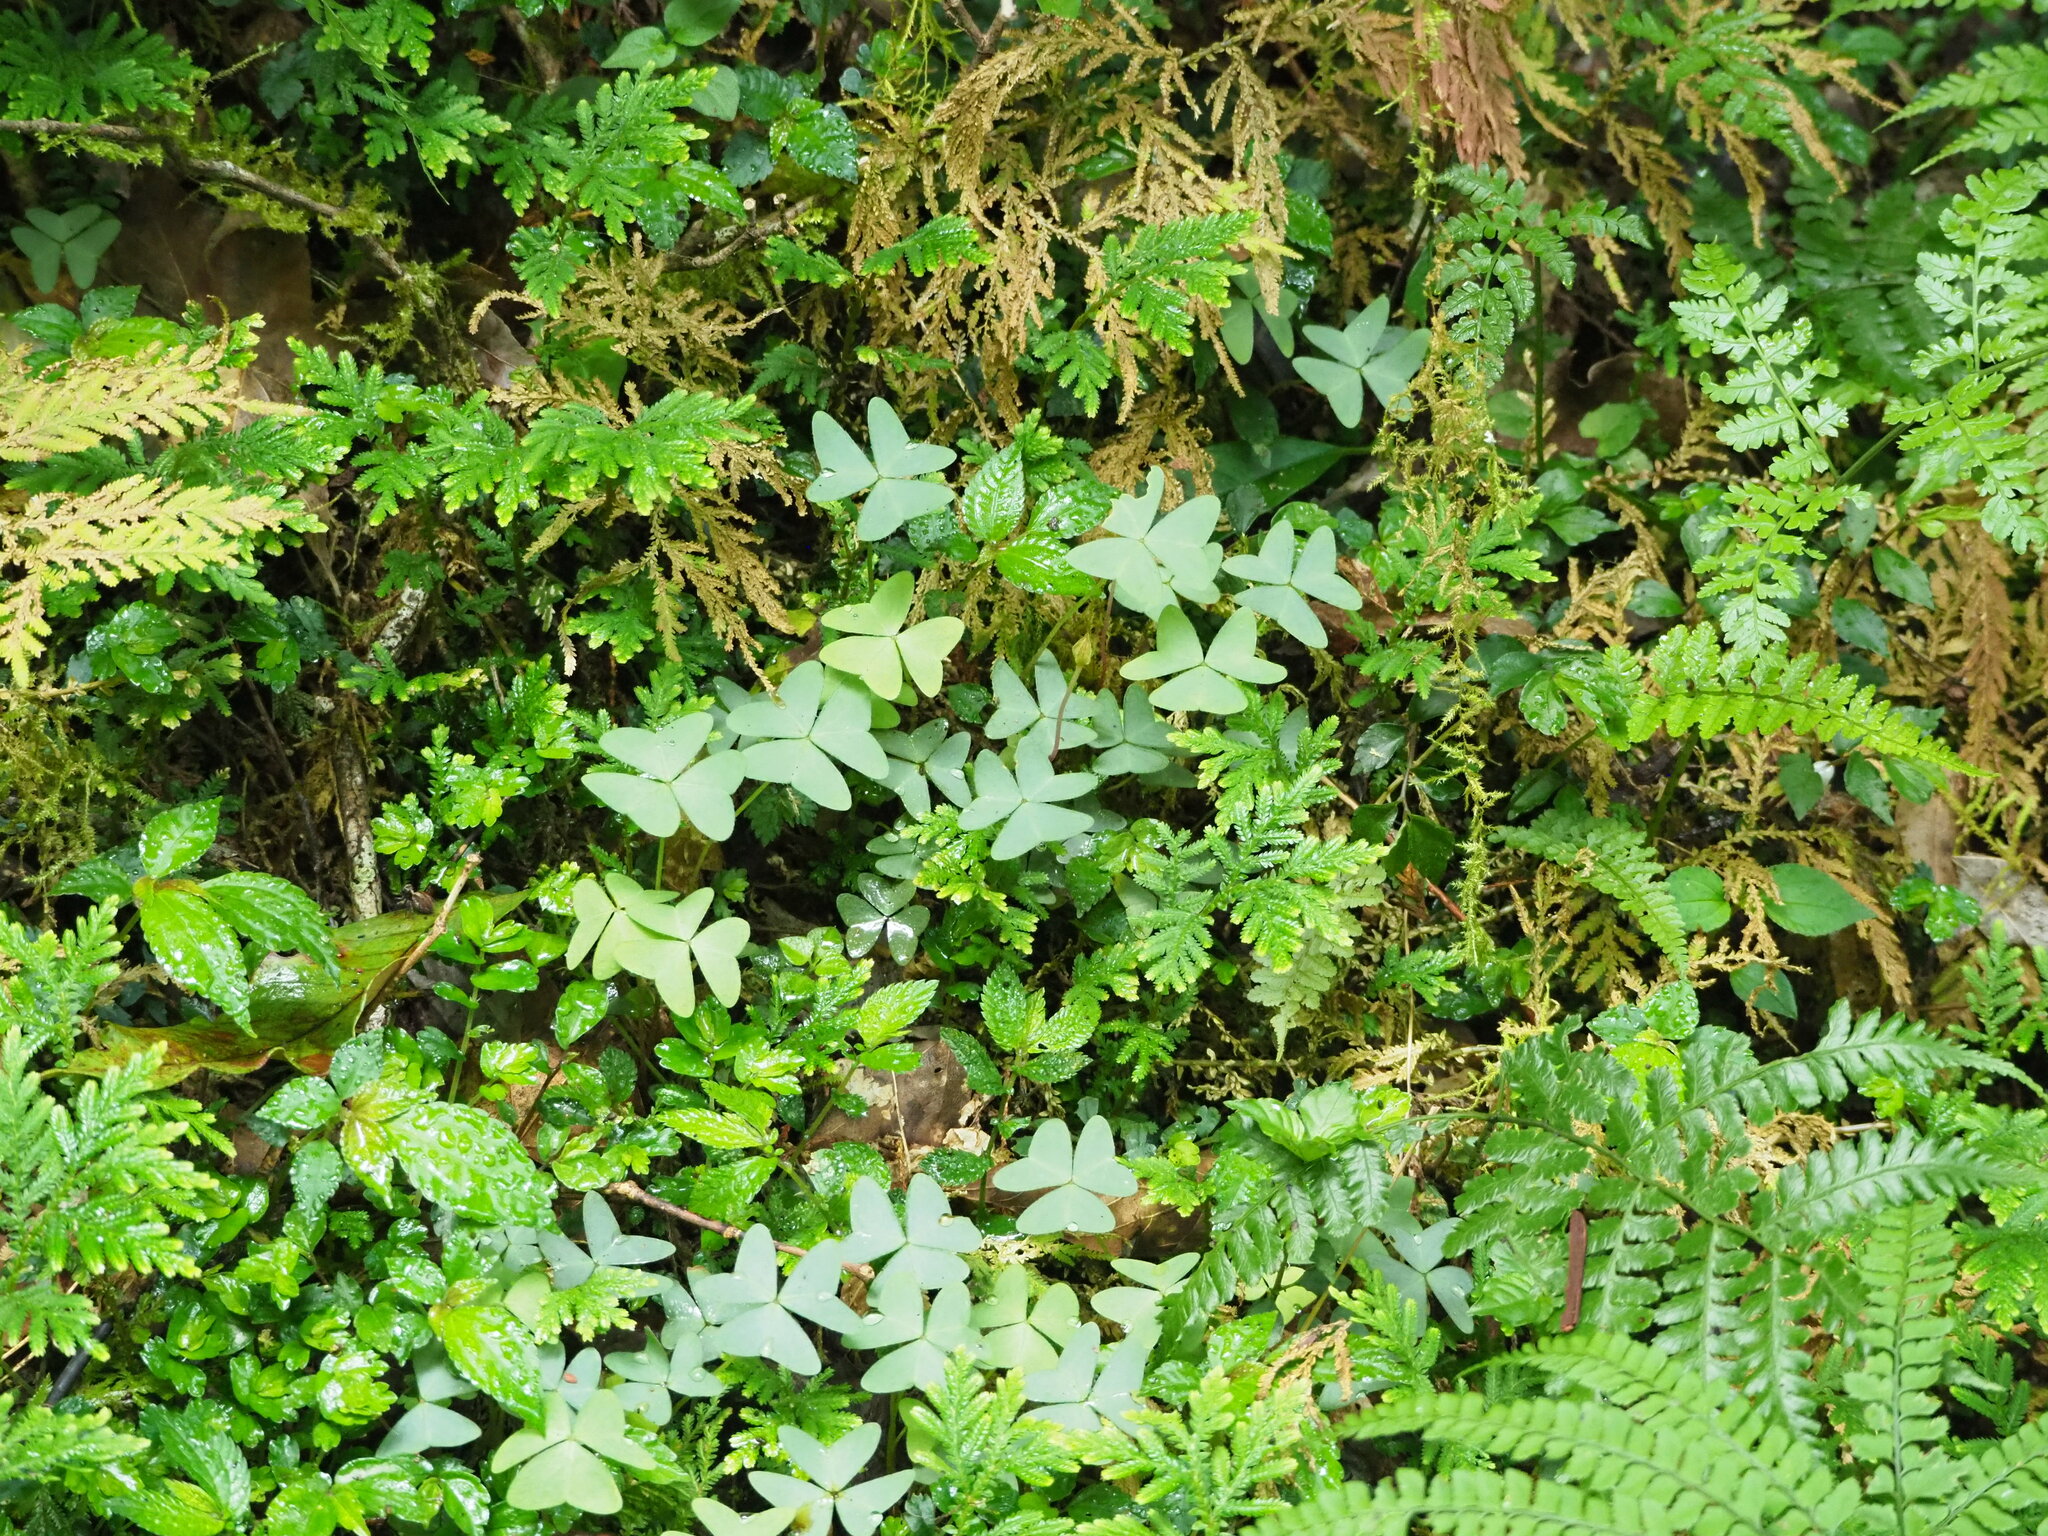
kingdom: Plantae
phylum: Tracheophyta
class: Magnoliopsida
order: Oxalidales
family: Oxalidaceae
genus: Oxalis
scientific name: Oxalis griffithii
